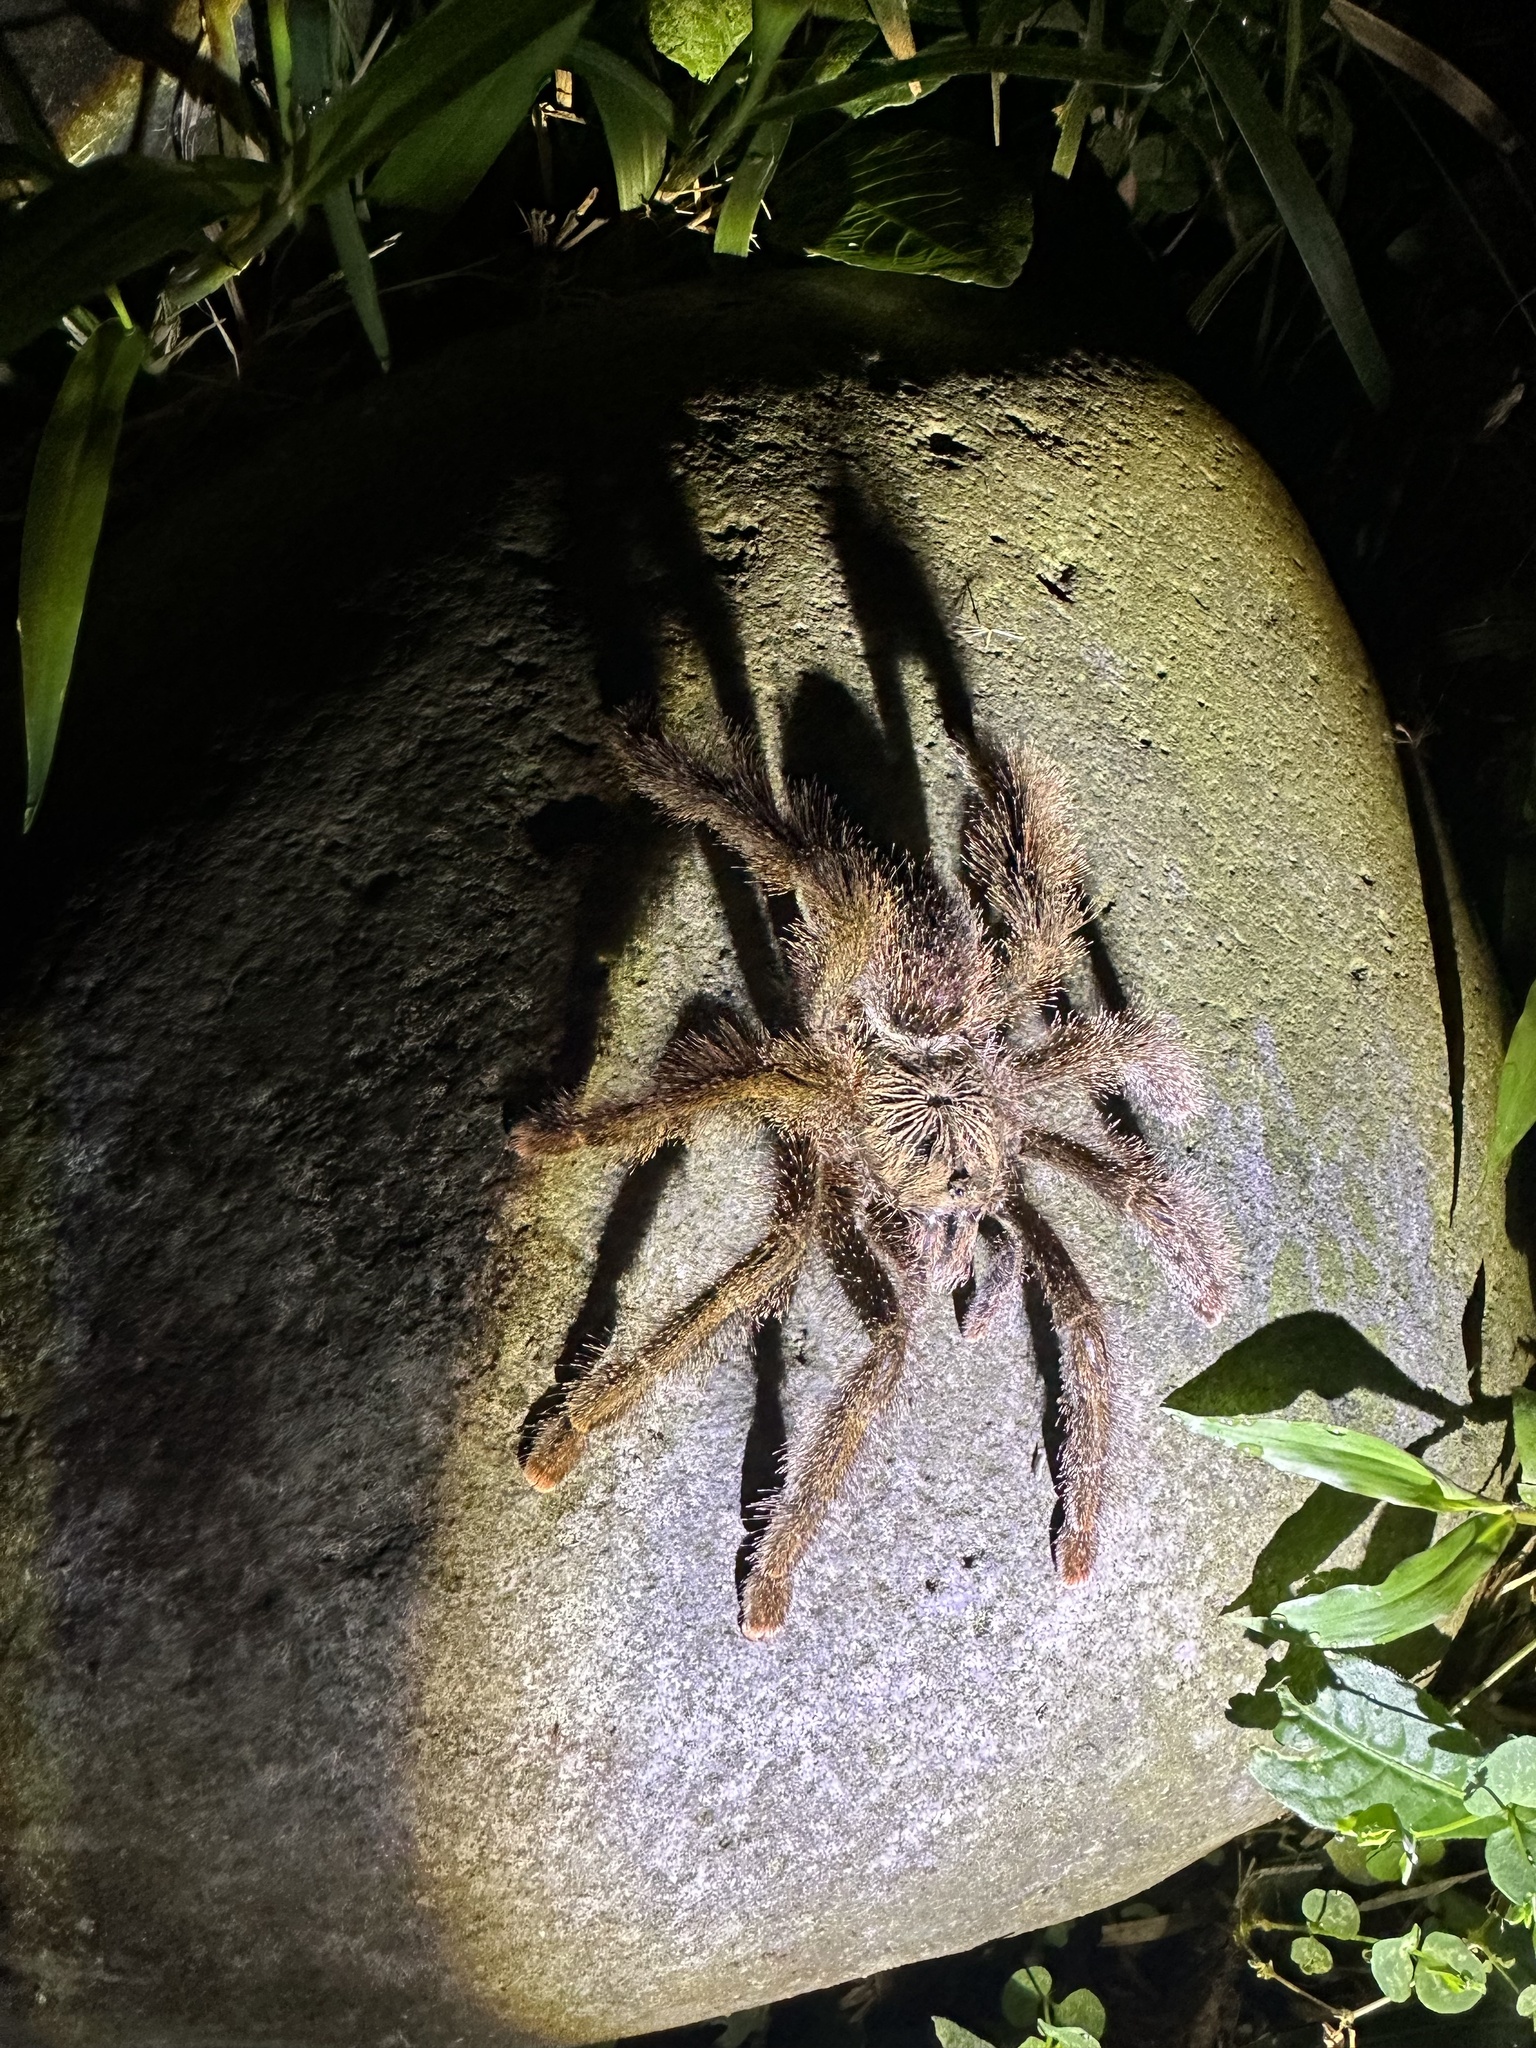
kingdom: Animalia
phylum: Arthropoda
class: Arachnida
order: Araneae
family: Theraphosidae
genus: Avicularia
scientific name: Avicularia juruensis
